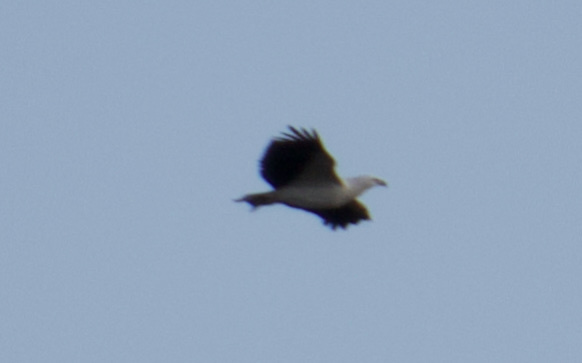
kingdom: Animalia
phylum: Chordata
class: Aves
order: Accipitriformes
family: Accipitridae
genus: Haliaeetus
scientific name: Haliaeetus leucogaster
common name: White-bellied sea eagle
